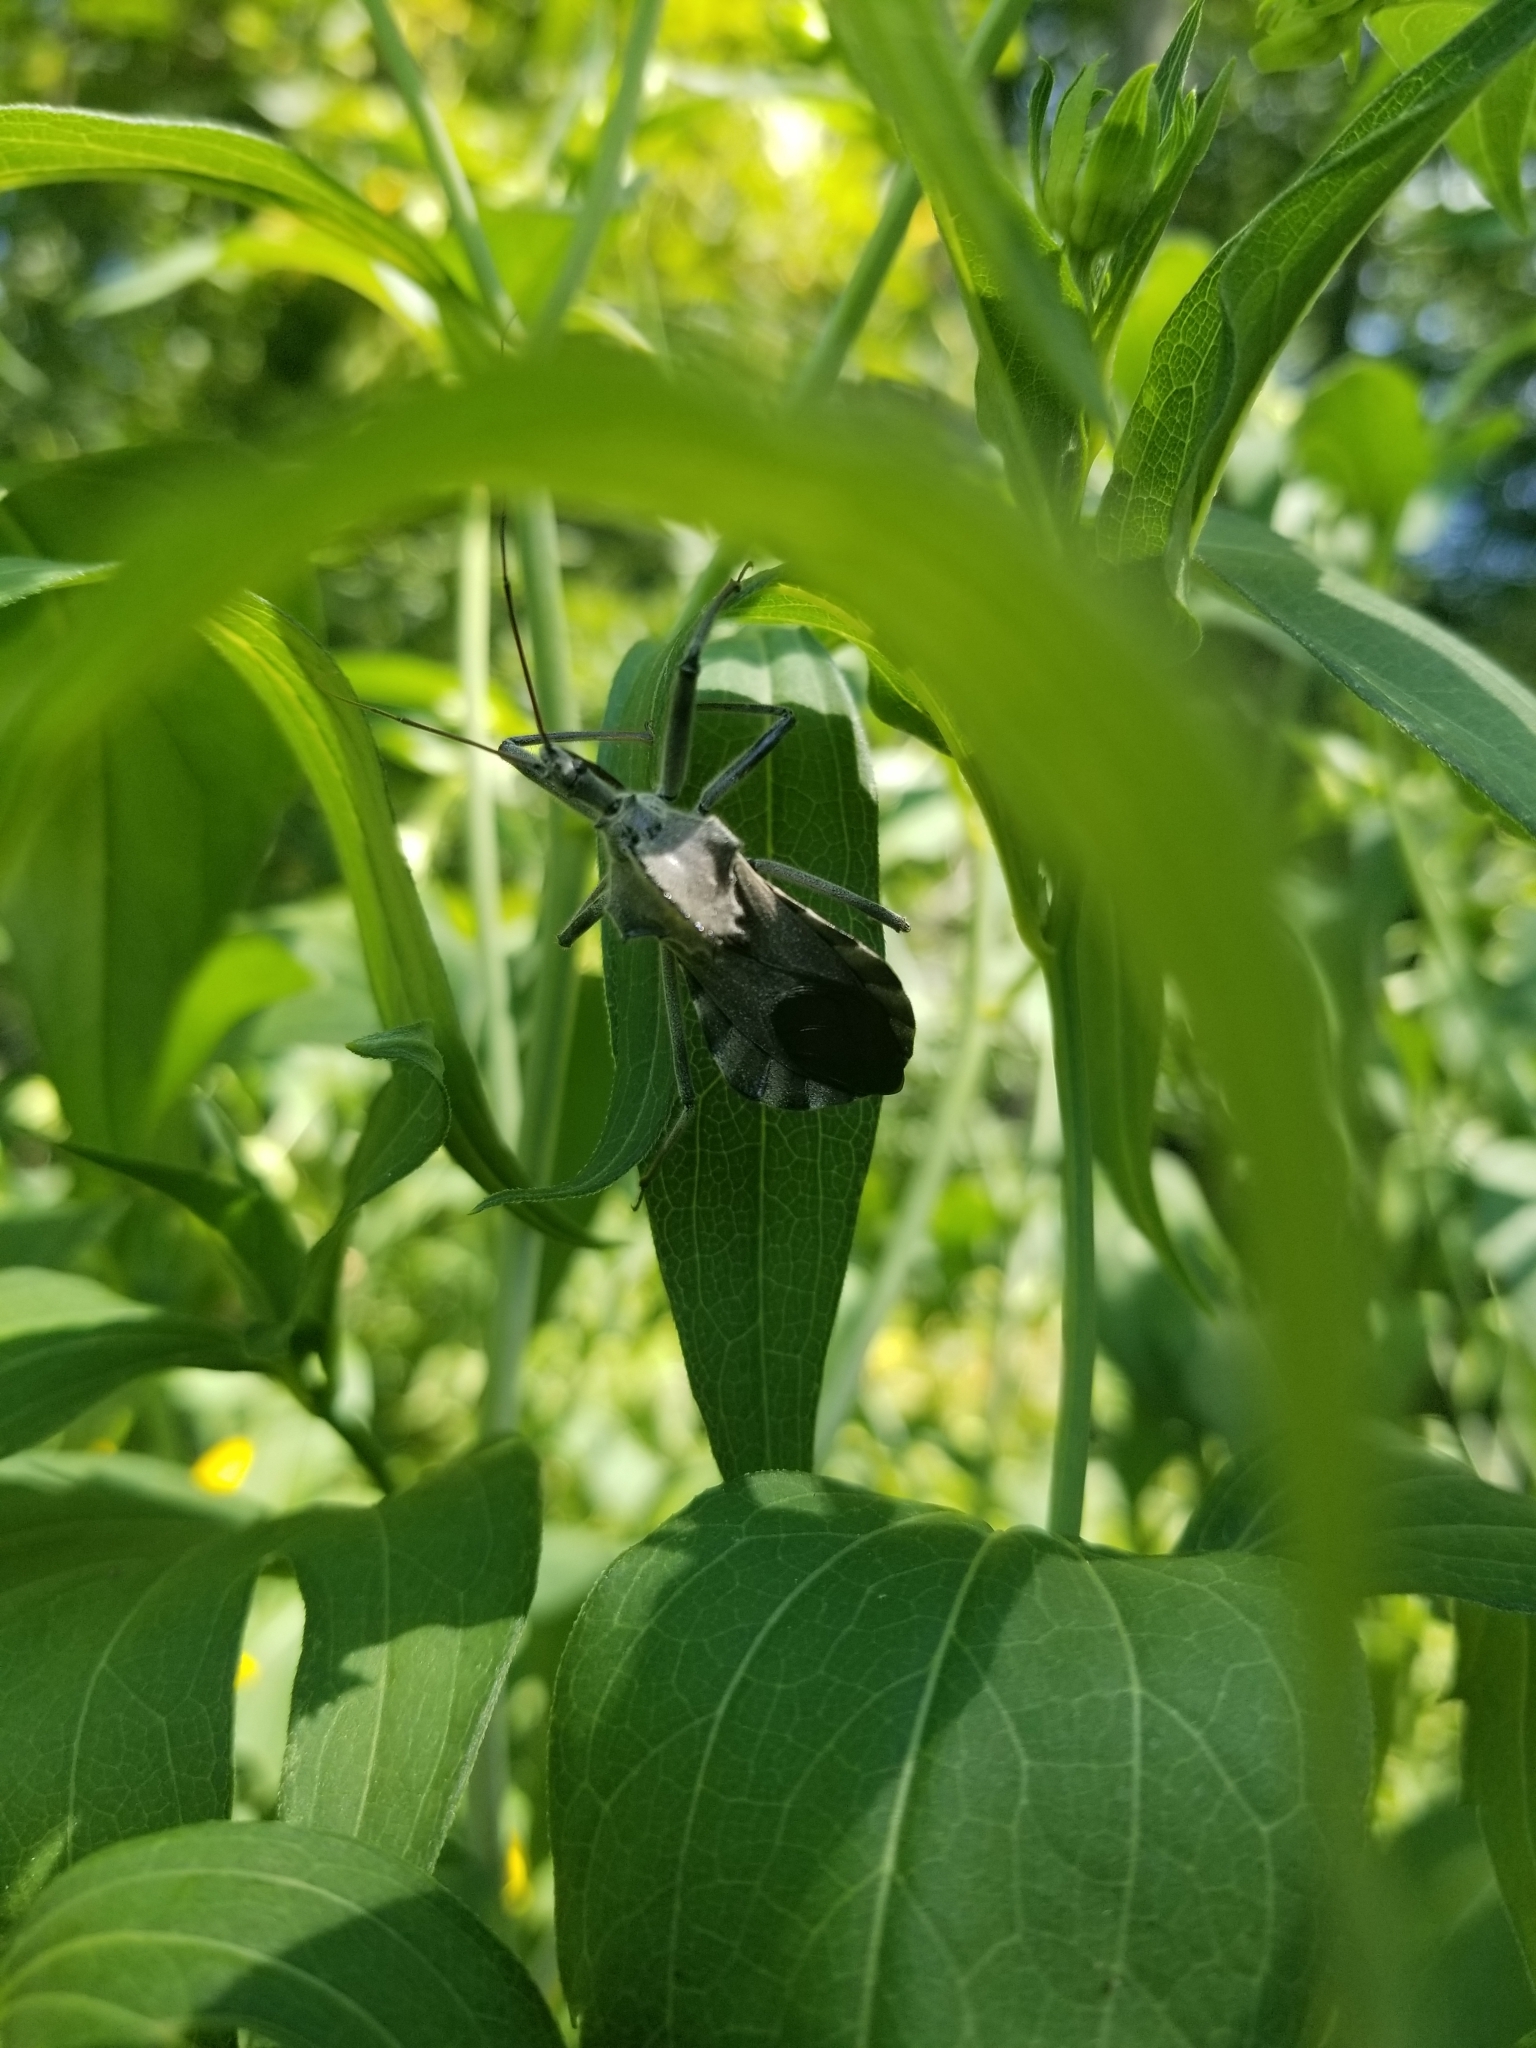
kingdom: Animalia
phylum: Arthropoda
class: Insecta
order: Hemiptera
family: Reduviidae
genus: Arilus
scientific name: Arilus cristatus
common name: North american wheel bug
